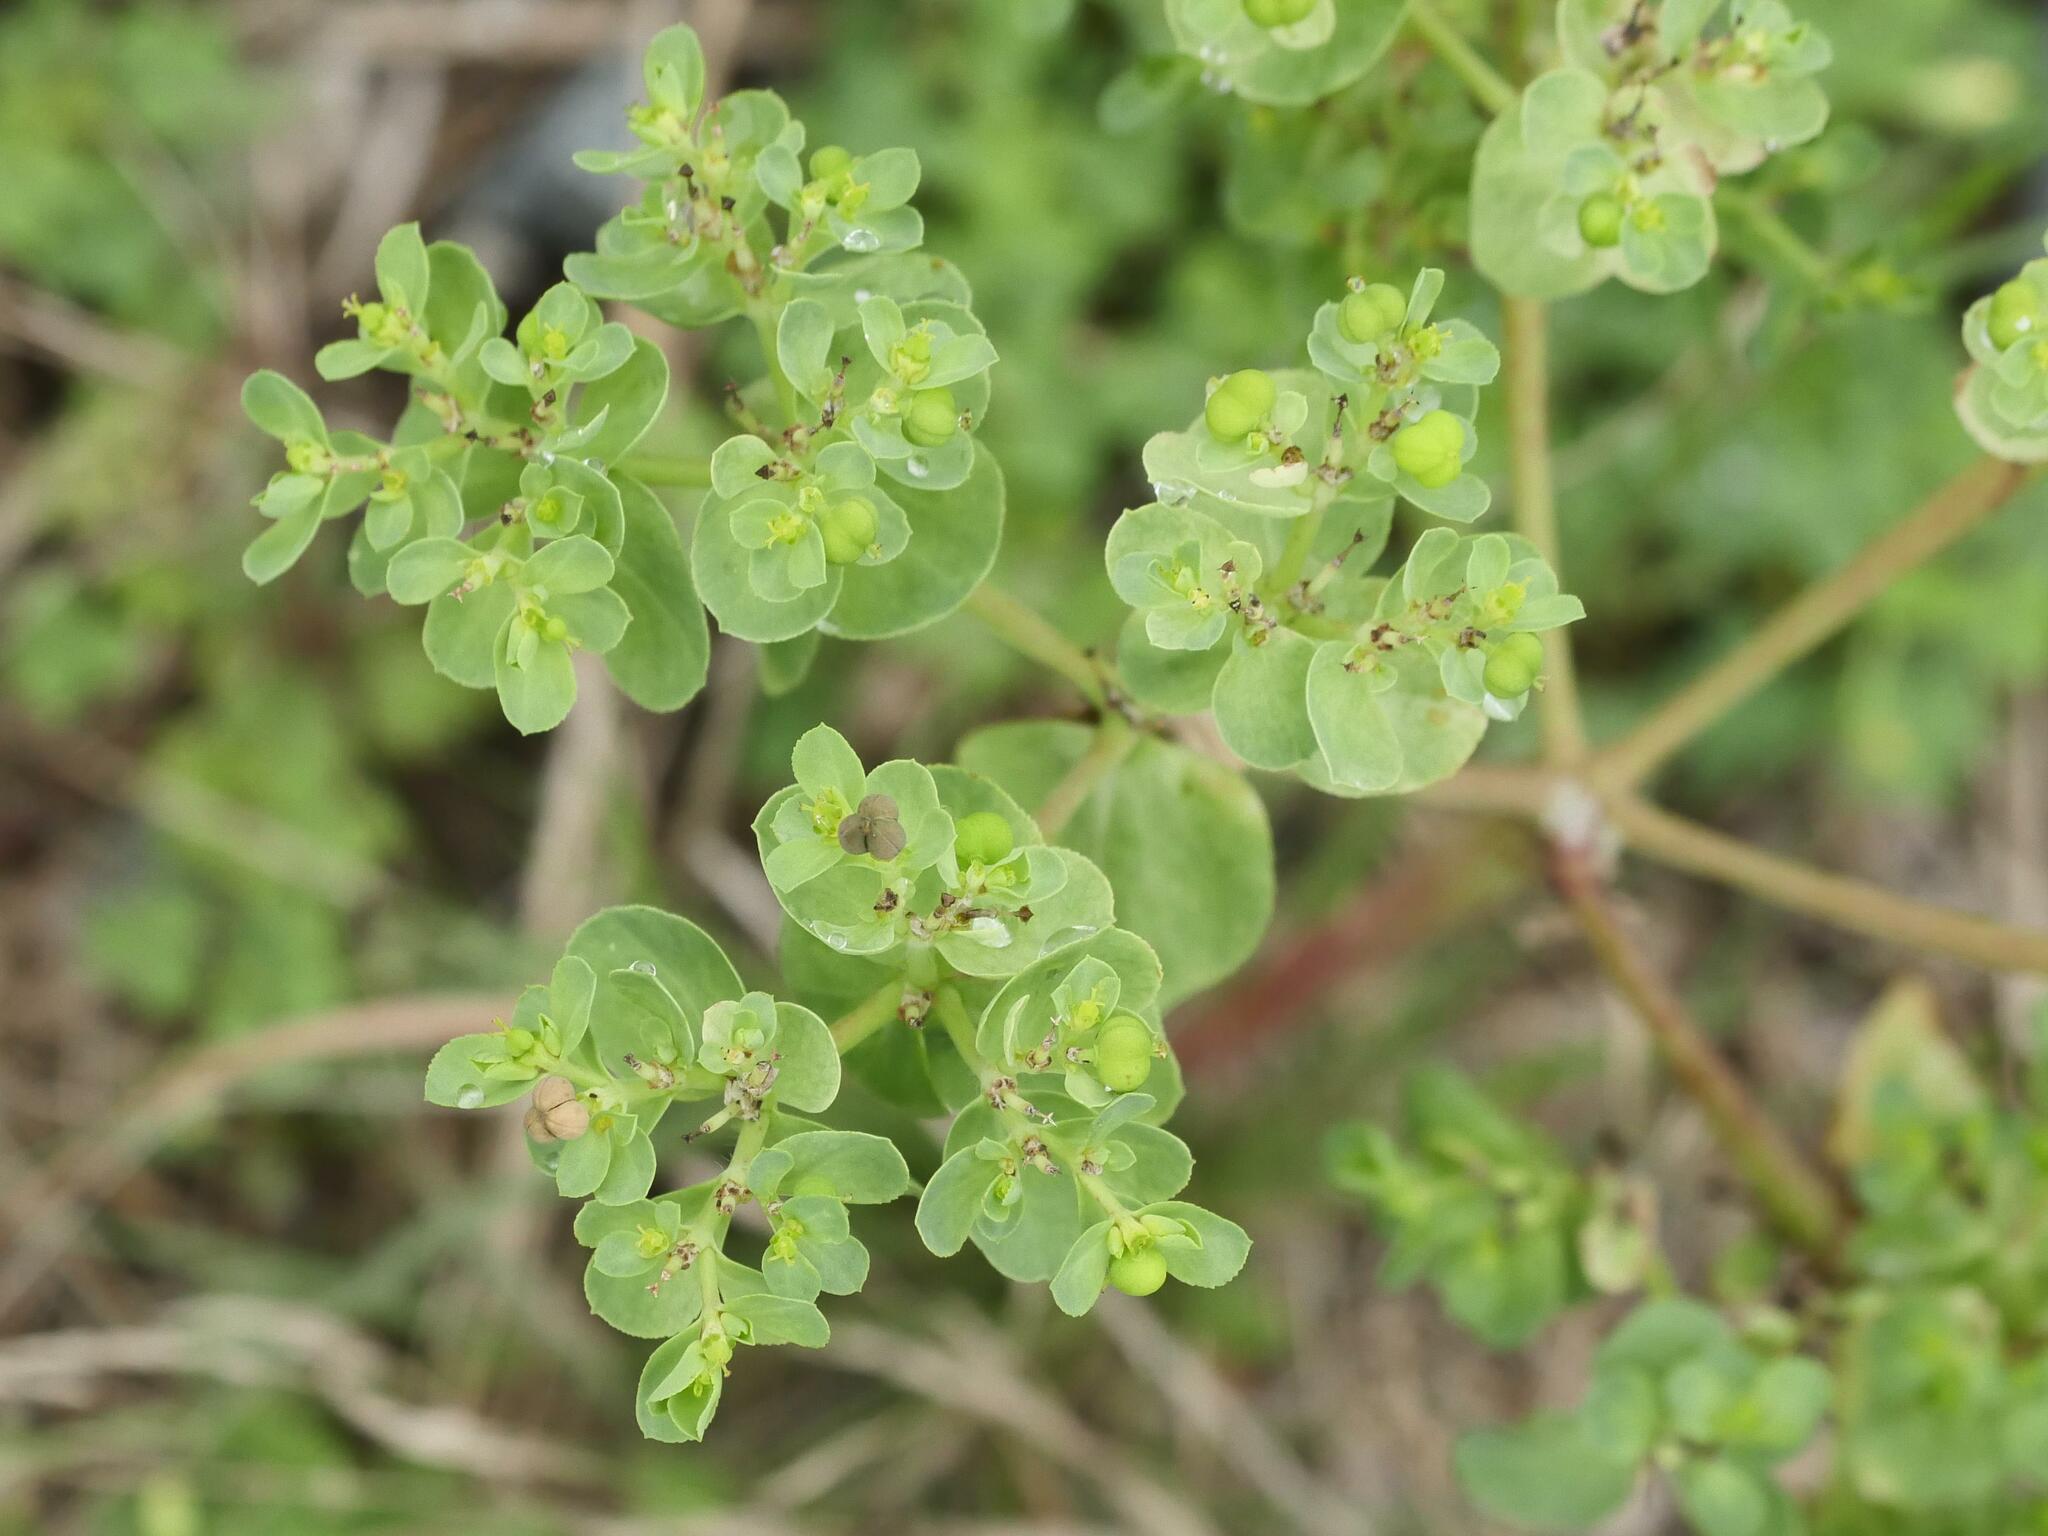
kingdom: Plantae
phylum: Tracheophyta
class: Magnoliopsida
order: Malpighiales
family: Euphorbiaceae
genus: Euphorbia
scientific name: Euphorbia helioscopia
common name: Sun spurge
